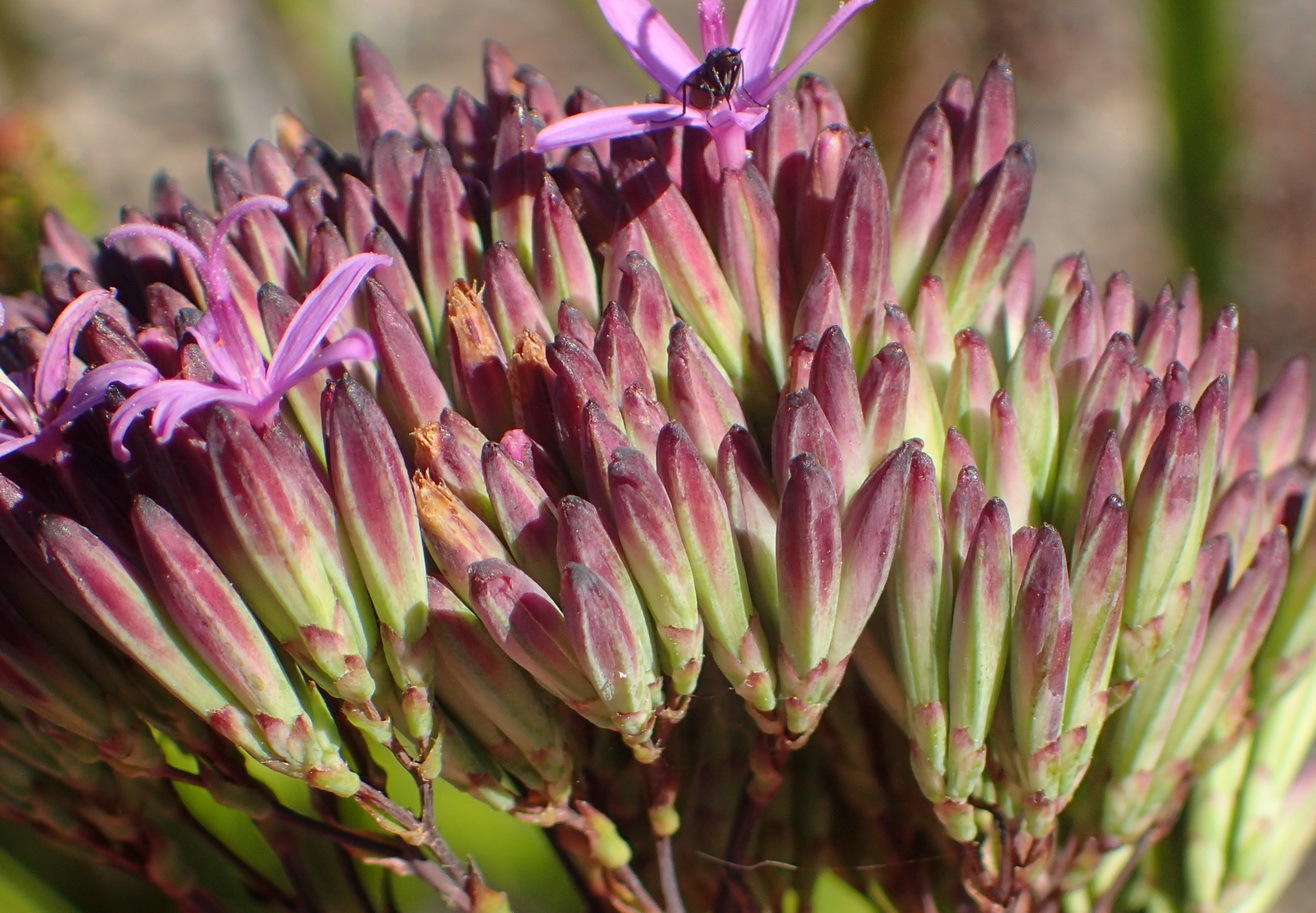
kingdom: Plantae
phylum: Tracheophyta
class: Magnoliopsida
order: Asterales
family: Asteraceae
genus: Corymbium
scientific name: Corymbium glabrum
